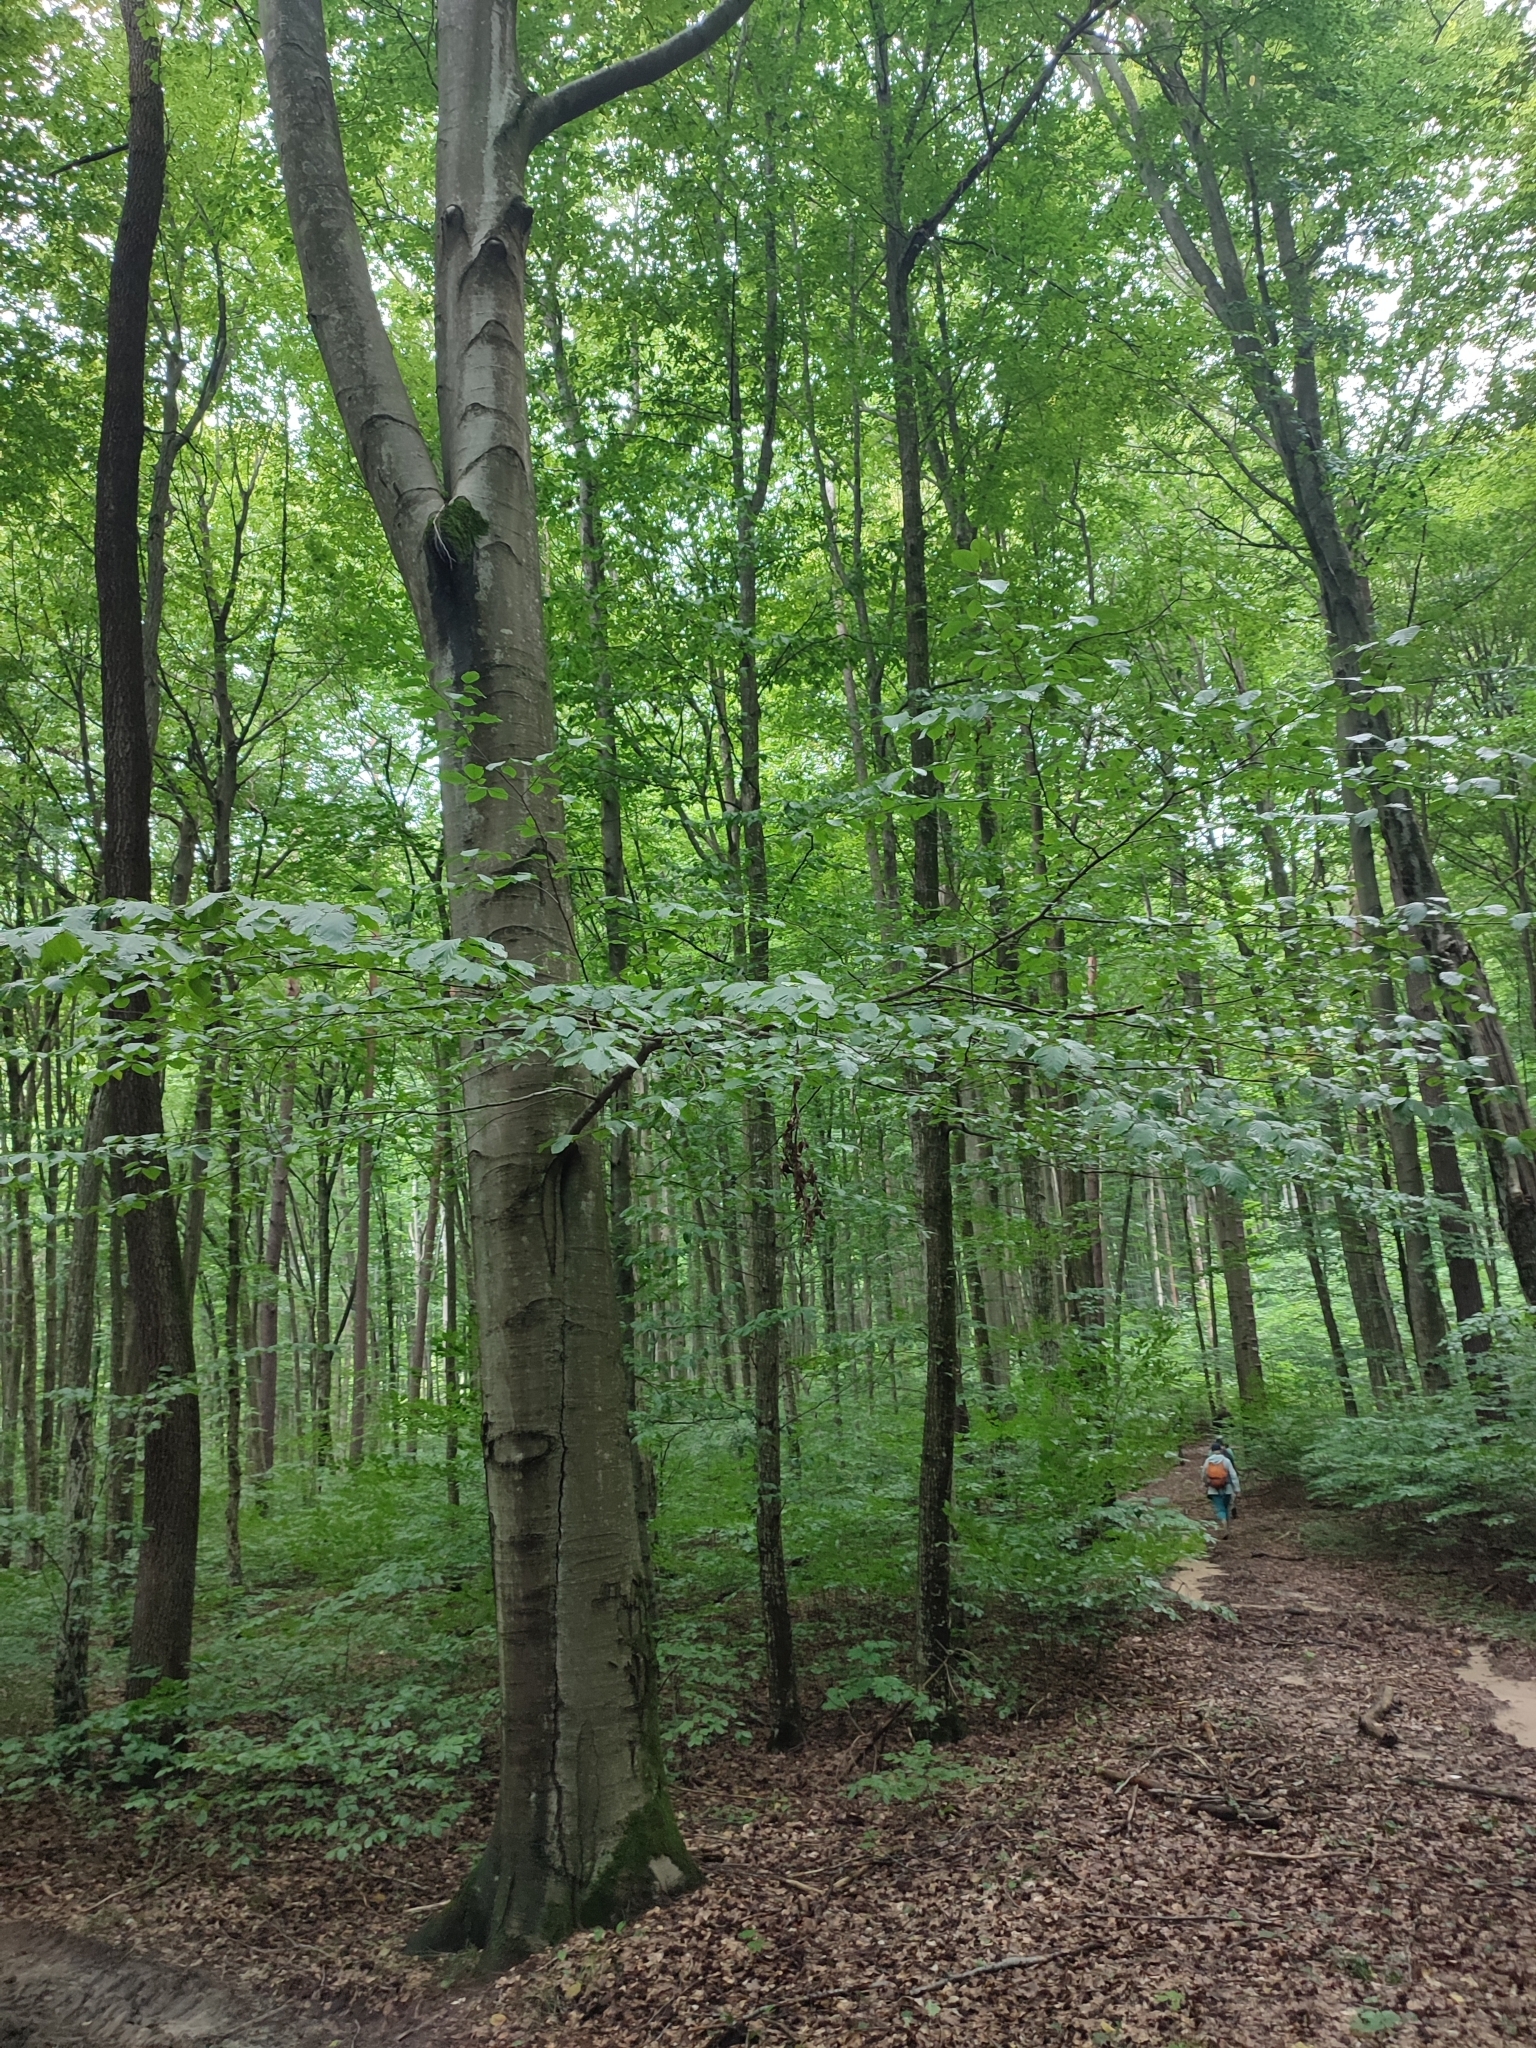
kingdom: Plantae
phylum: Tracheophyta
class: Magnoliopsida
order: Fagales
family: Fagaceae
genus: Fagus
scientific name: Fagus sylvatica
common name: Beech
